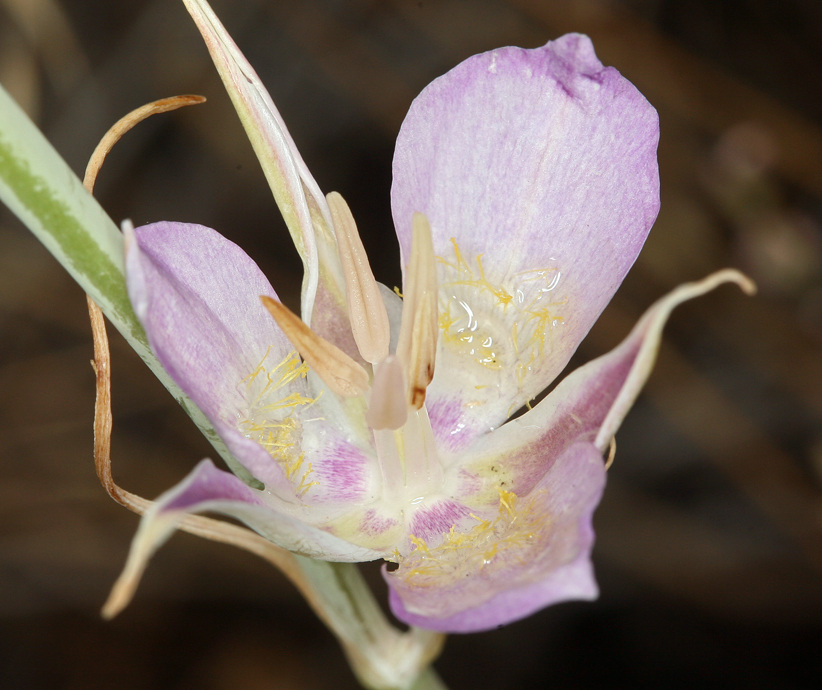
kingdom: Plantae
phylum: Tracheophyta
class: Liliopsida
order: Liliales
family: Liliaceae
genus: Calochortus
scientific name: Calochortus macrocarpus
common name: Green-band mariposa lily
